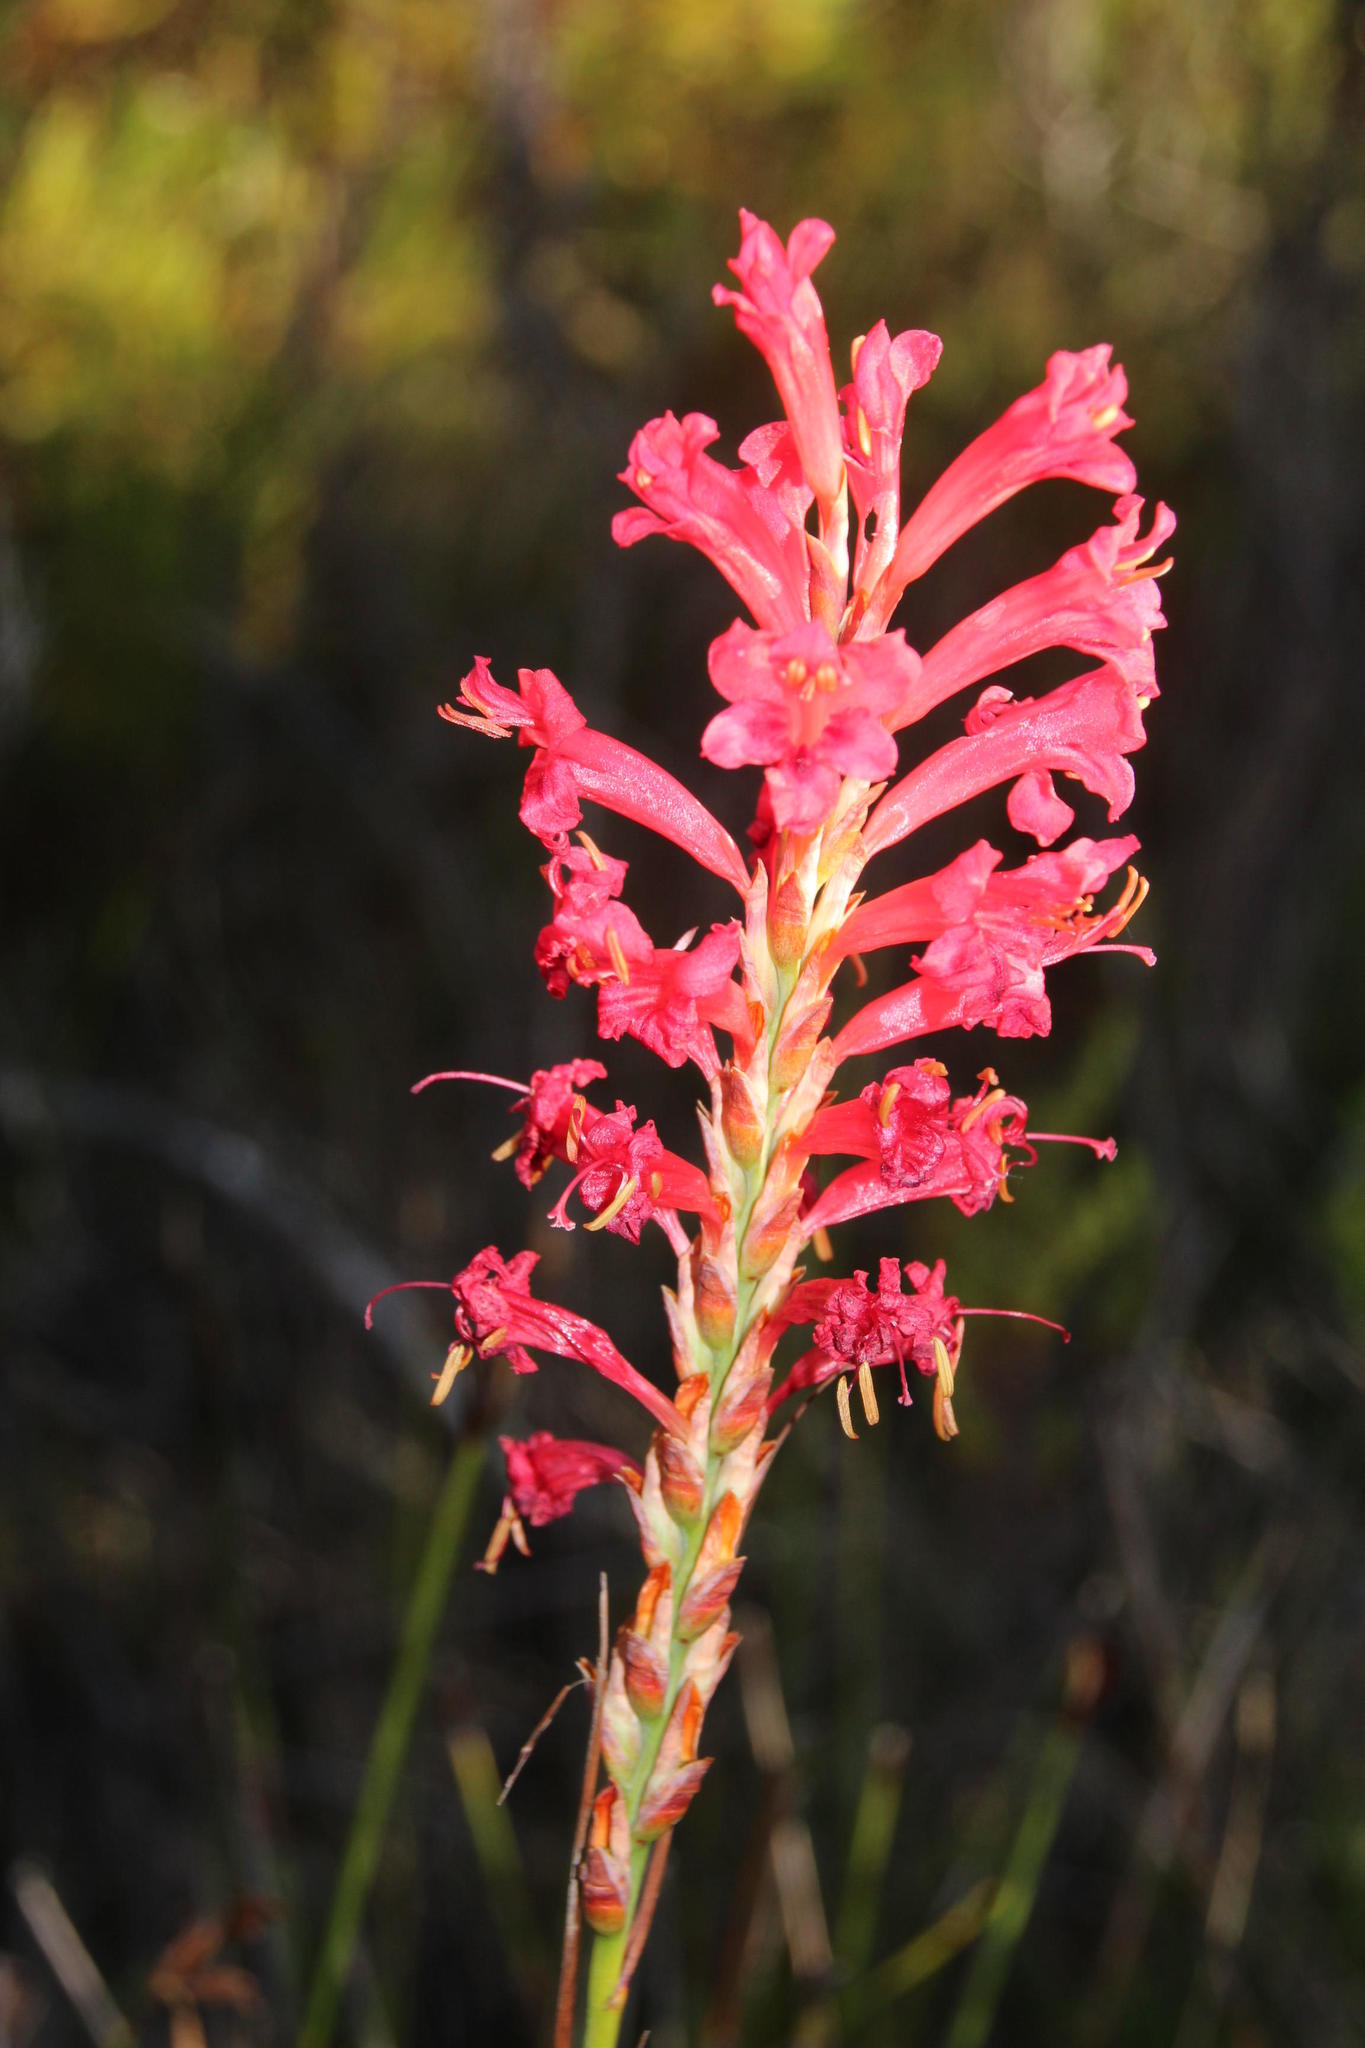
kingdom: Plantae
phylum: Tracheophyta
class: Liliopsida
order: Asparagales
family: Iridaceae
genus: Tritoniopsis
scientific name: Tritoniopsis triticea
